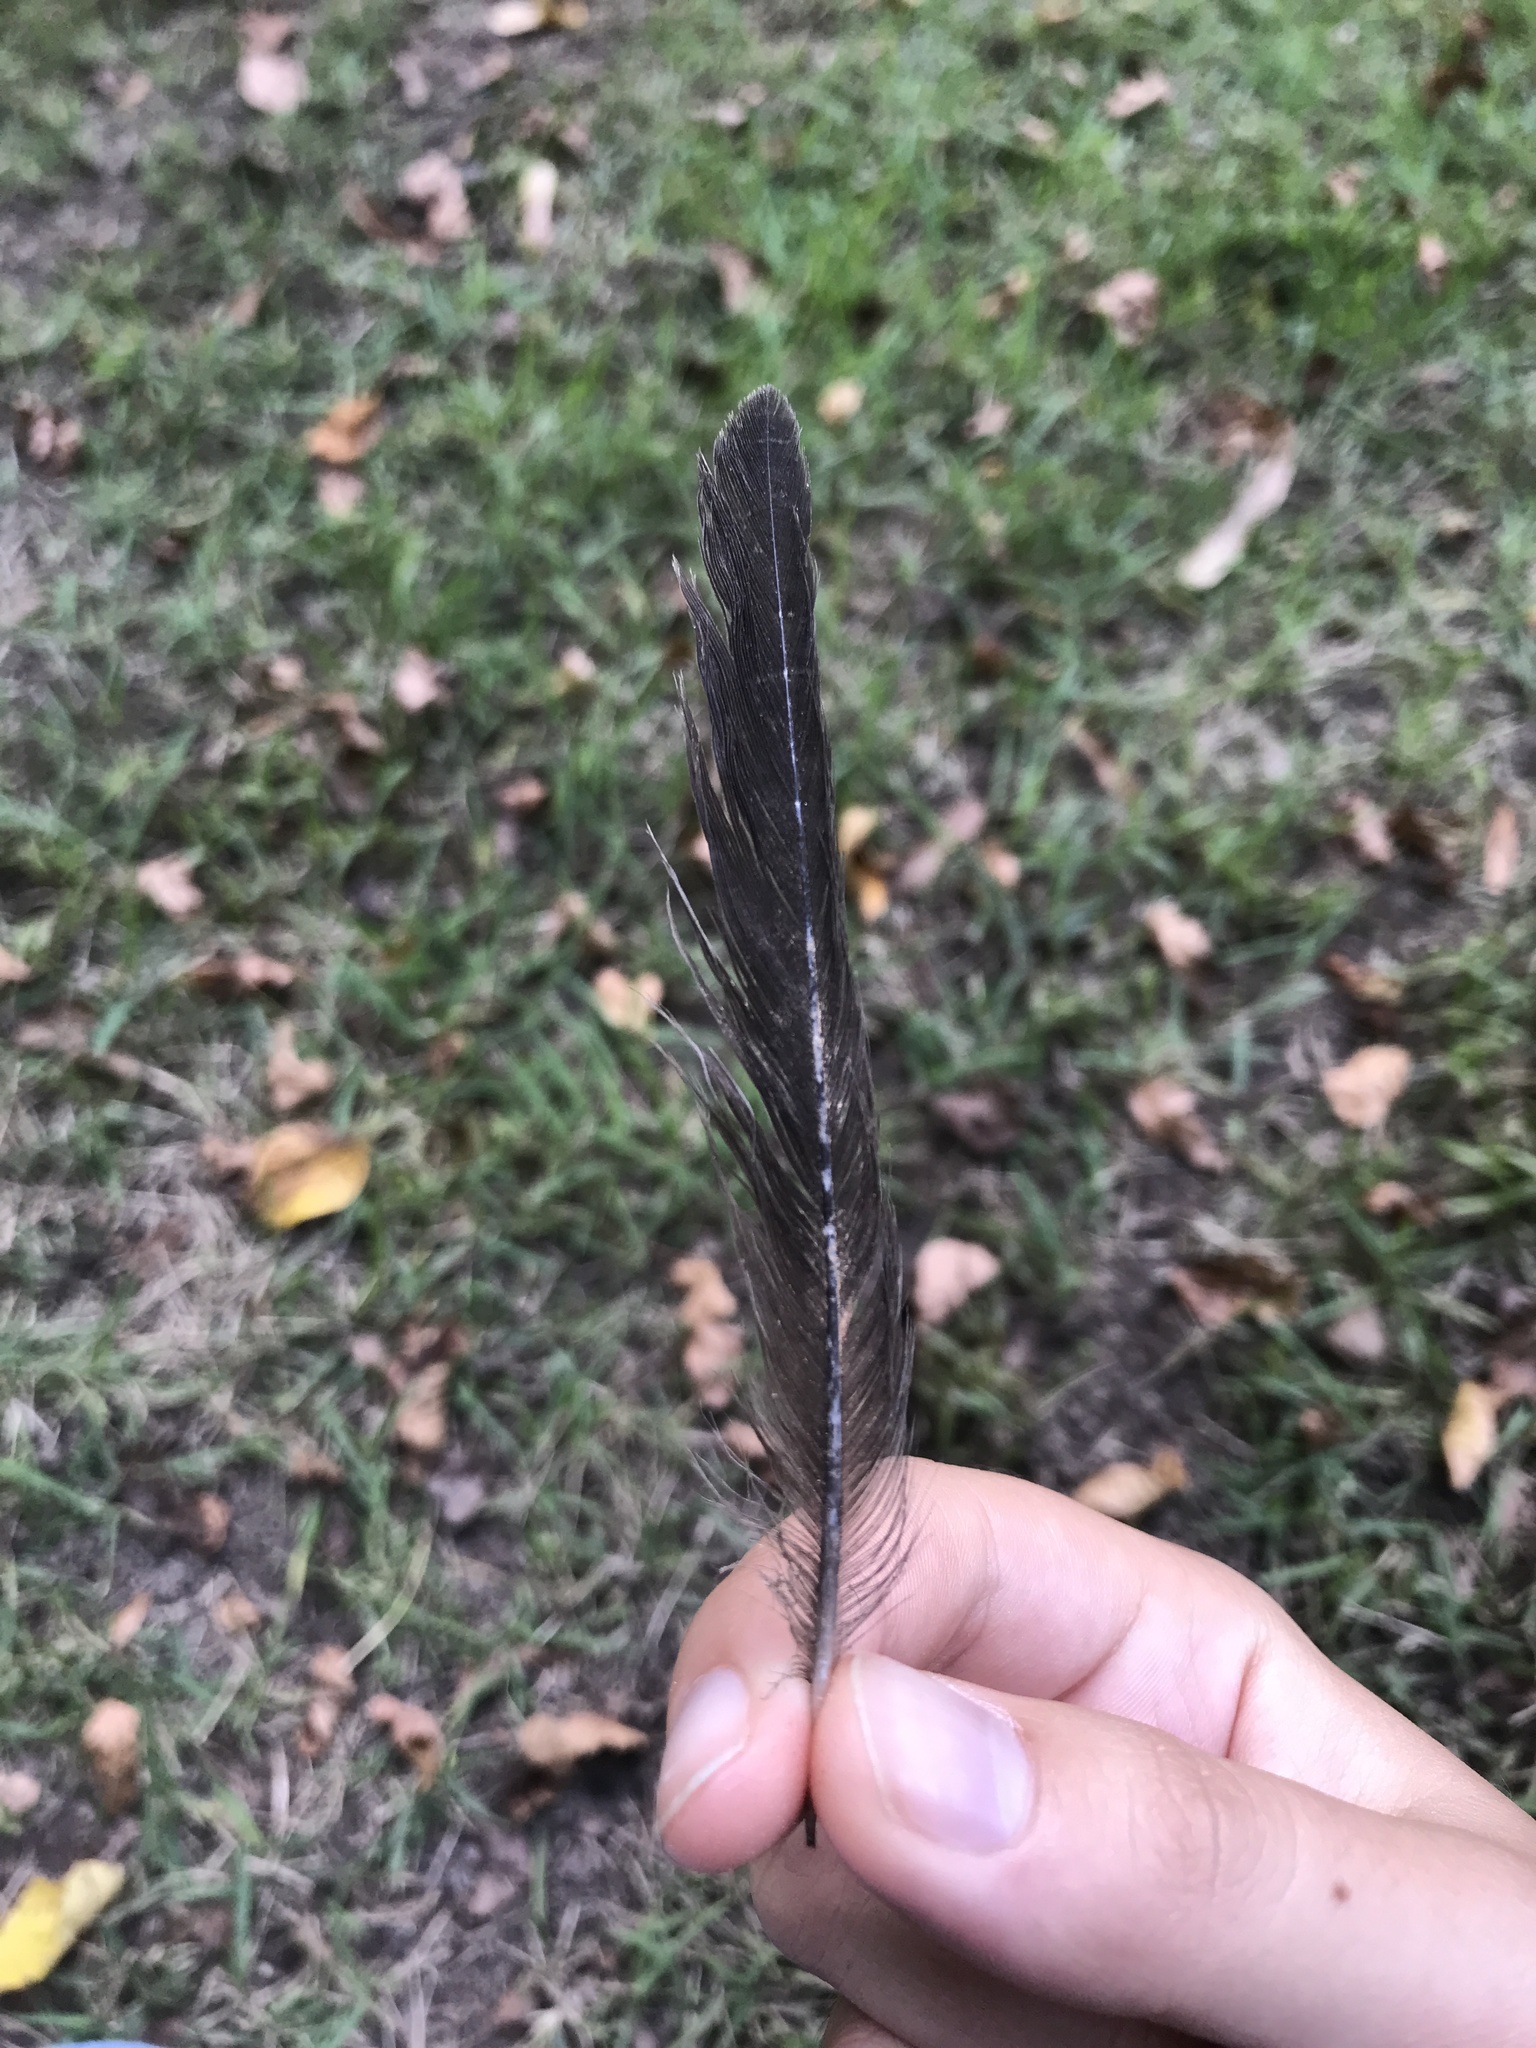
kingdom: Animalia
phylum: Chordata
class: Aves
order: Passeriformes
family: Turdidae
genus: Turdus
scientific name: Turdus migratorius
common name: American robin
